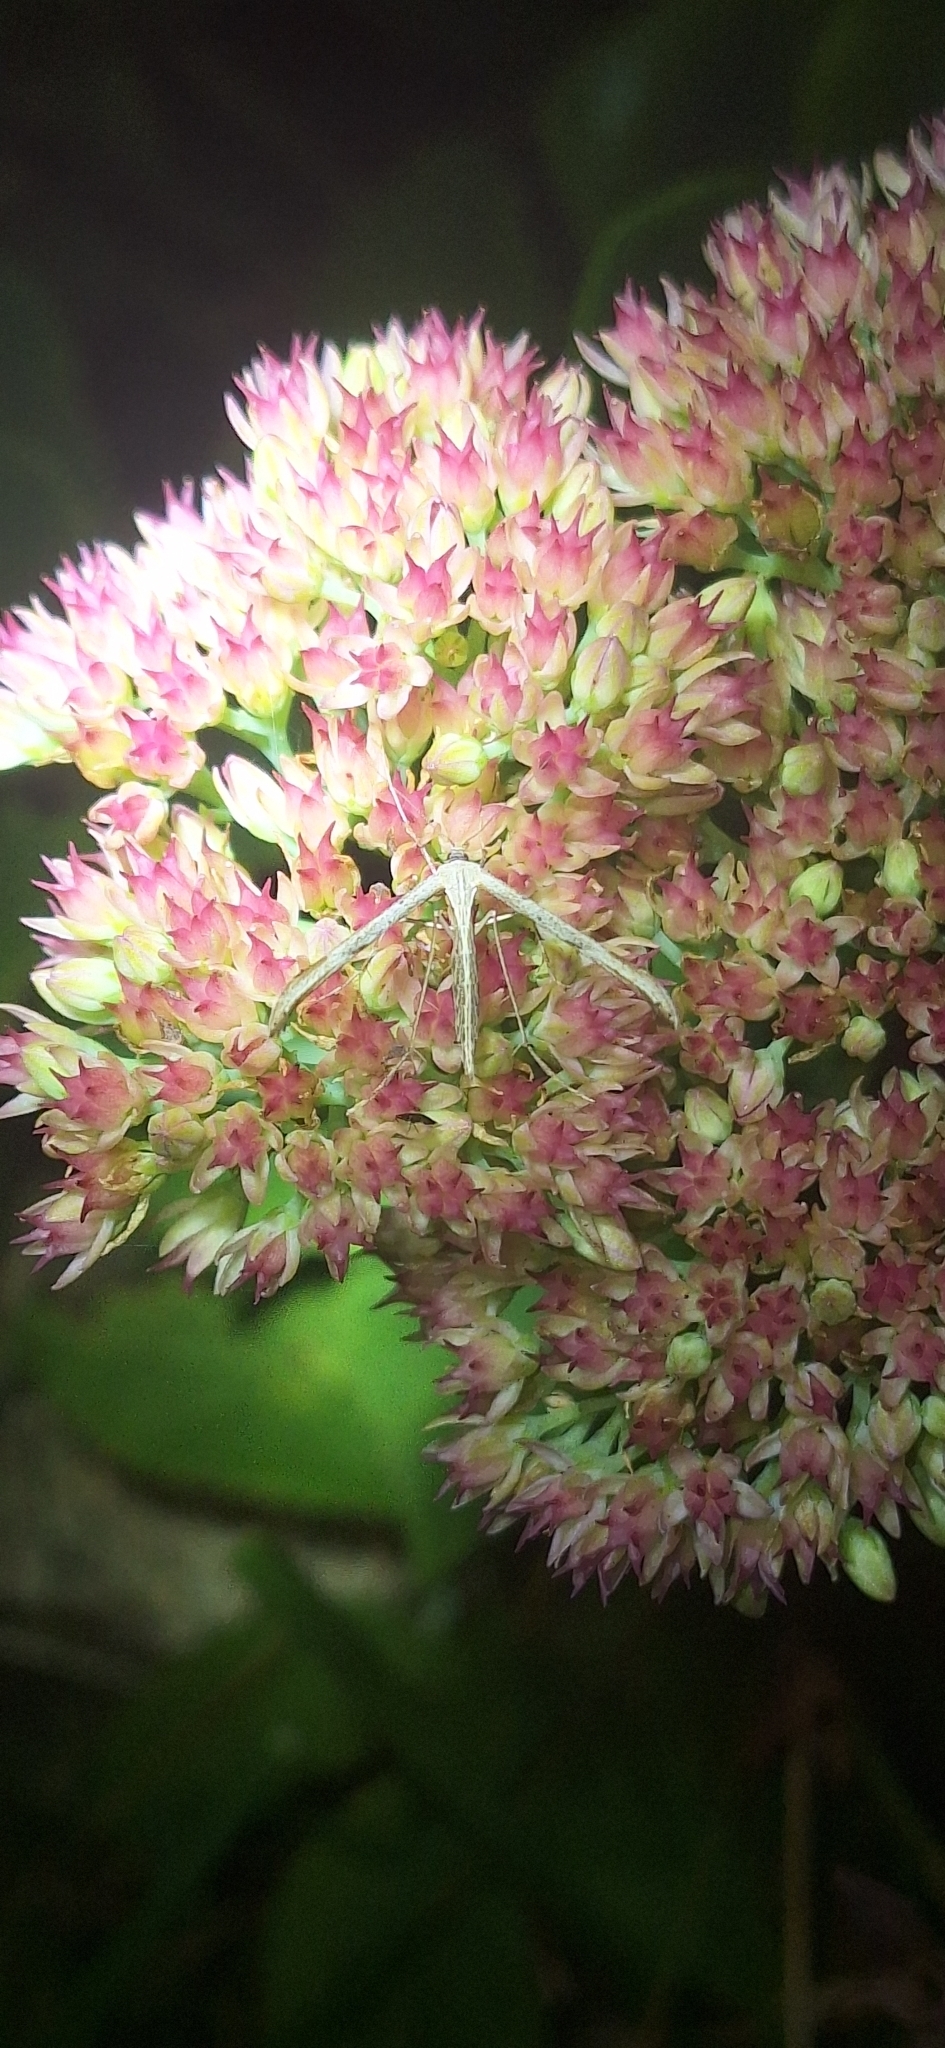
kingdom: Animalia
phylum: Arthropoda
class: Insecta
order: Lepidoptera
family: Pterophoridae
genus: Pterophorus
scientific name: Pterophorus pentadactyla
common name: White plume moth
